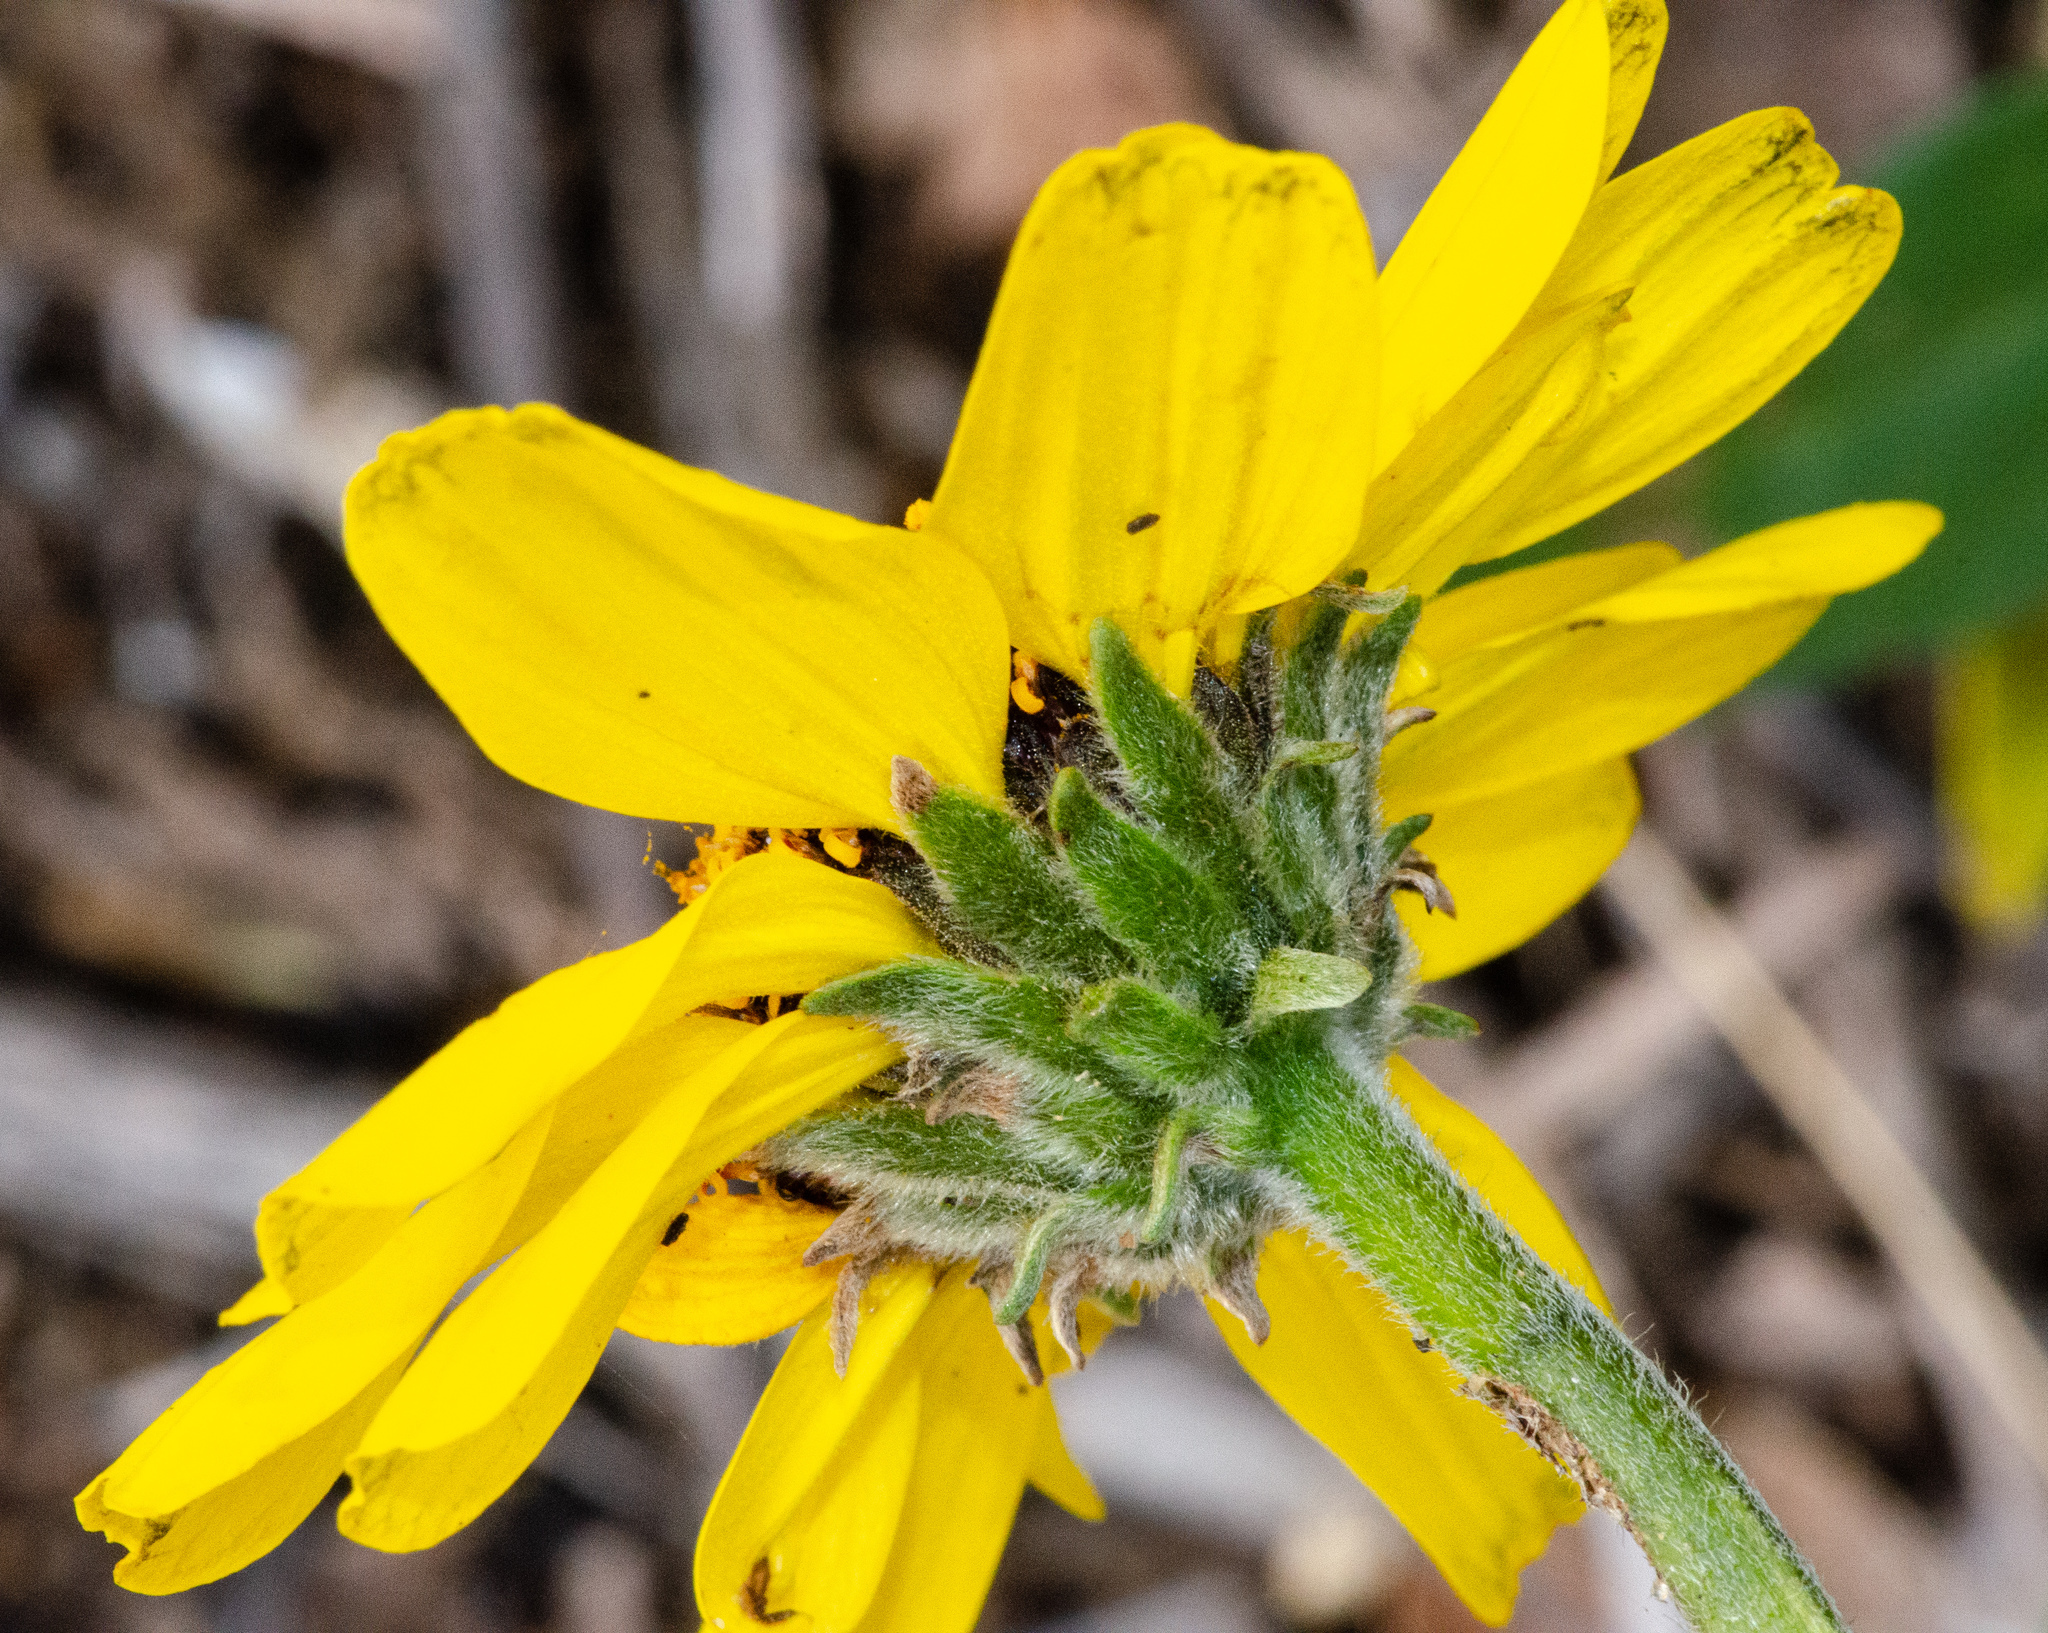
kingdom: Plantae
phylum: Tracheophyta
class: Magnoliopsida
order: Asterales
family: Asteraceae
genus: Encelia
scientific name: Encelia californica
